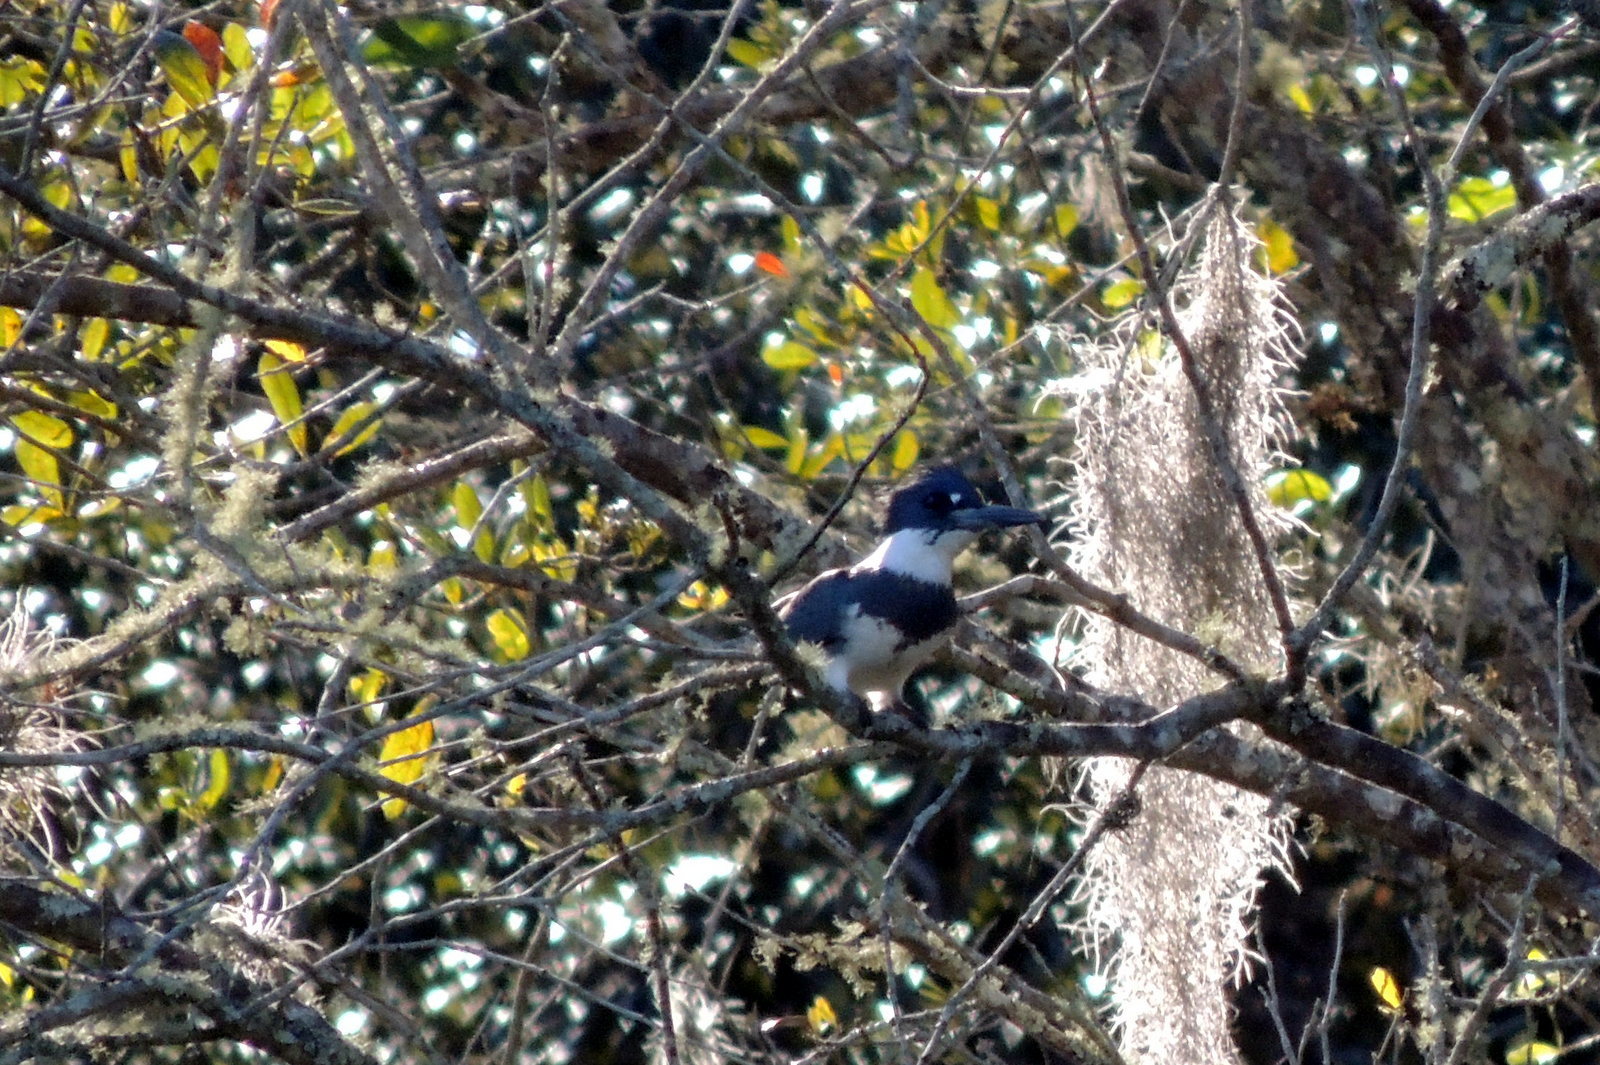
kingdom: Animalia
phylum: Chordata
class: Aves
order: Coraciiformes
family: Alcedinidae
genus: Megaceryle
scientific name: Megaceryle alcyon
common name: Belted kingfisher
